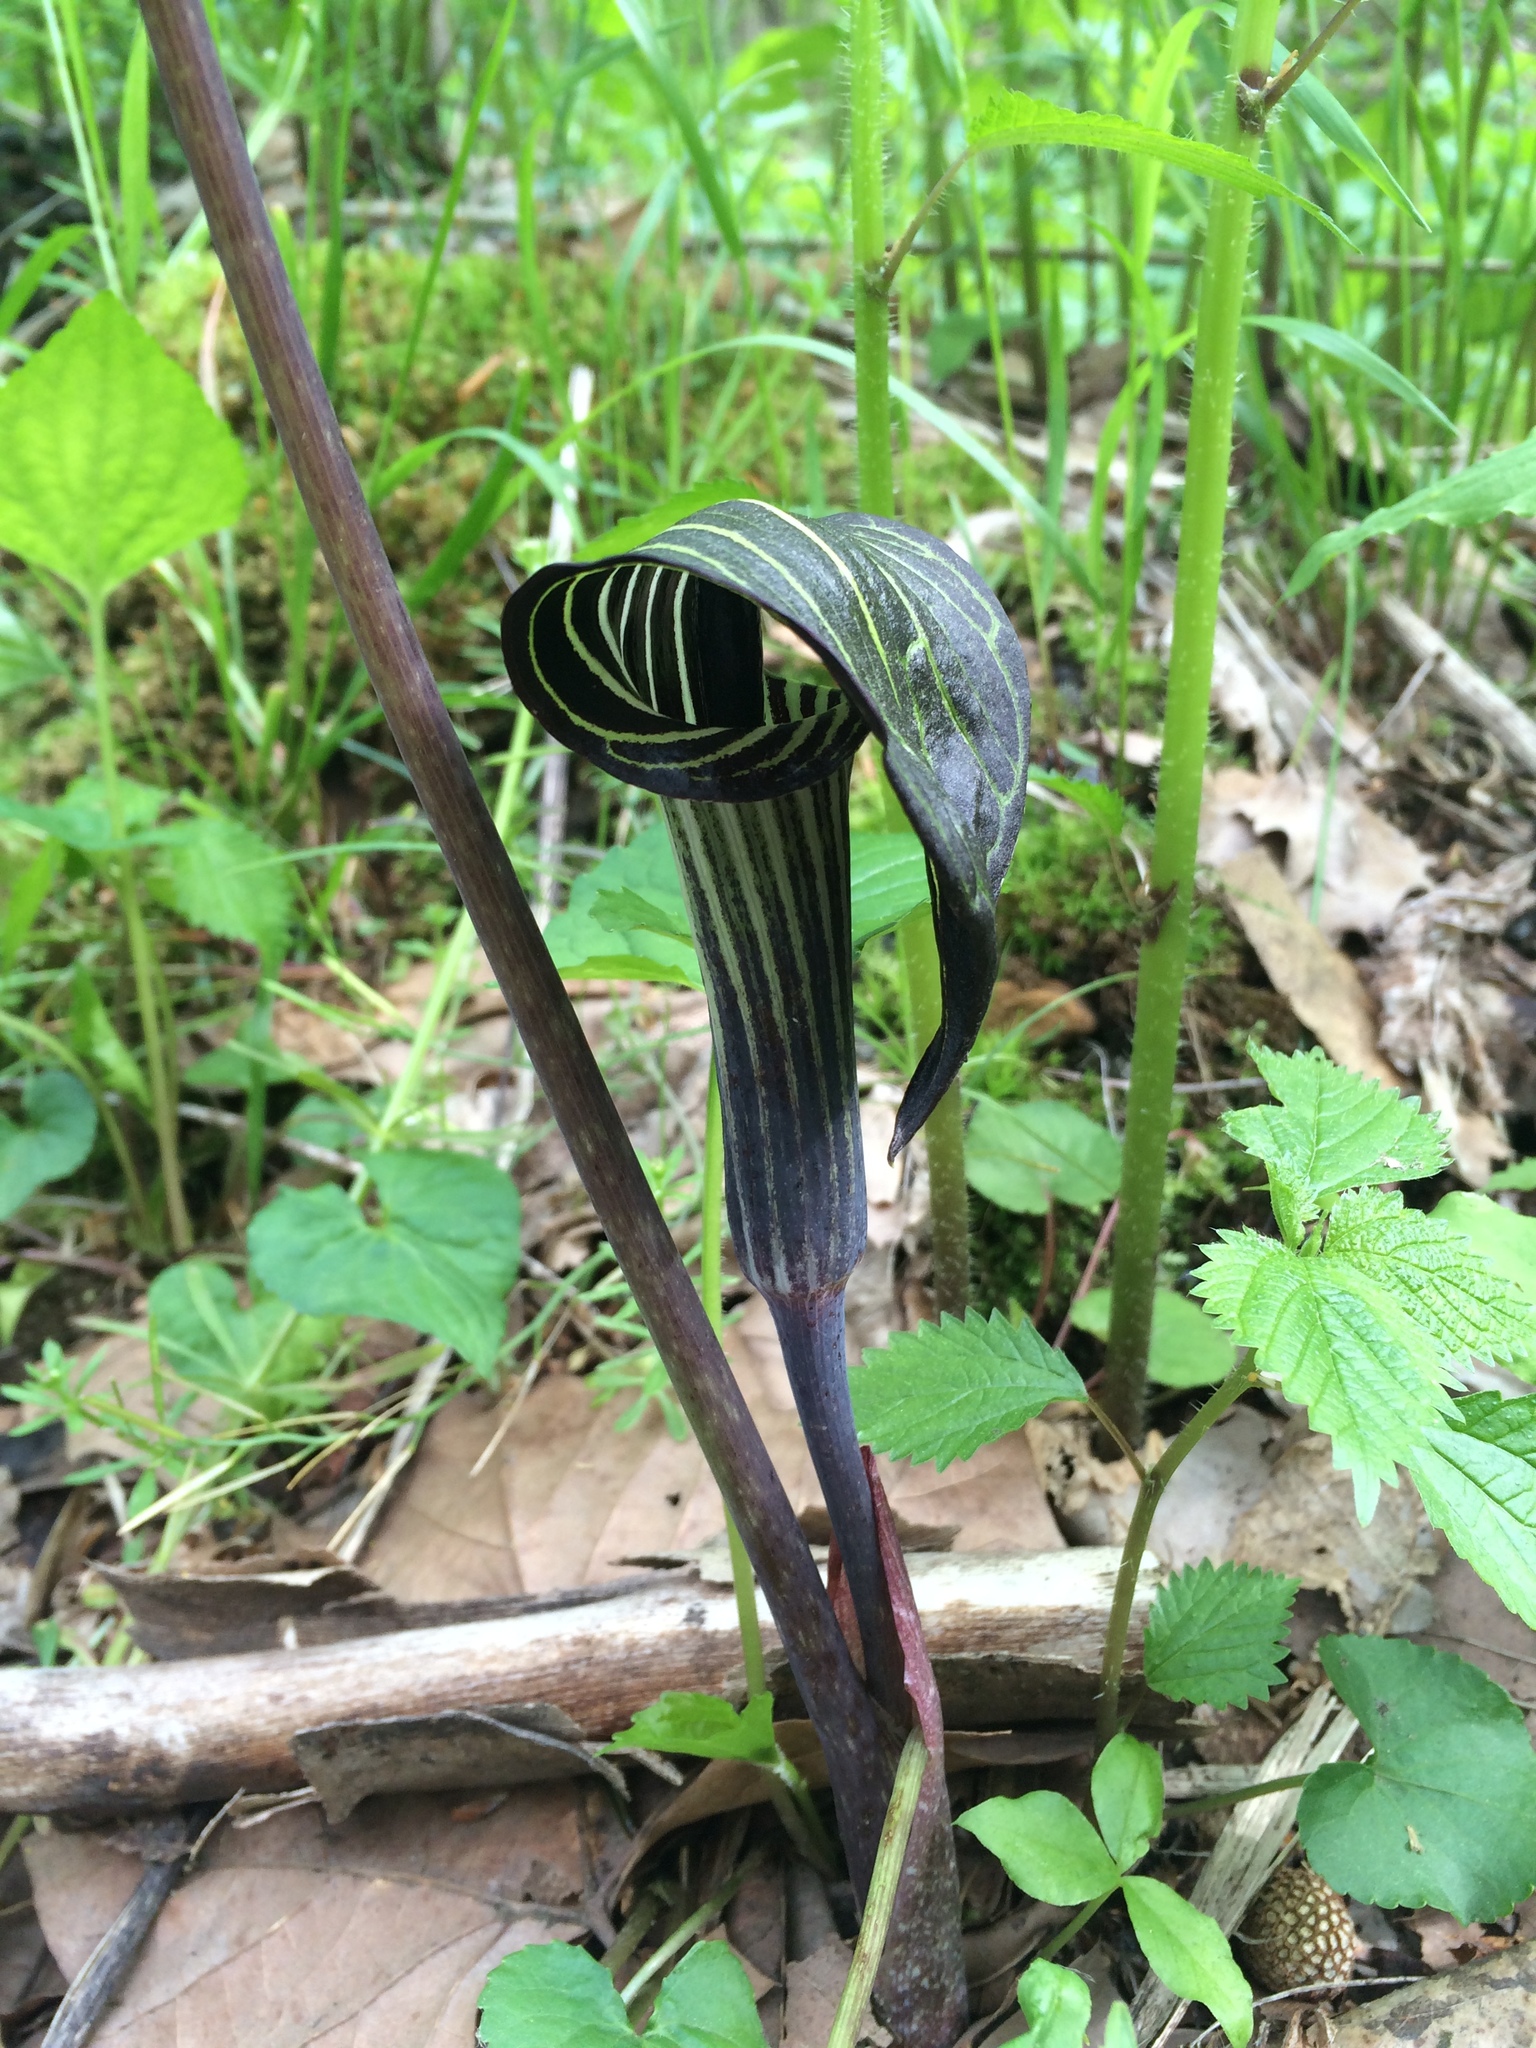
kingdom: Plantae
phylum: Tracheophyta
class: Liliopsida
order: Alismatales
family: Araceae
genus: Arisaema
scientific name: Arisaema triphyllum
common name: Jack-in-the-pulpit
